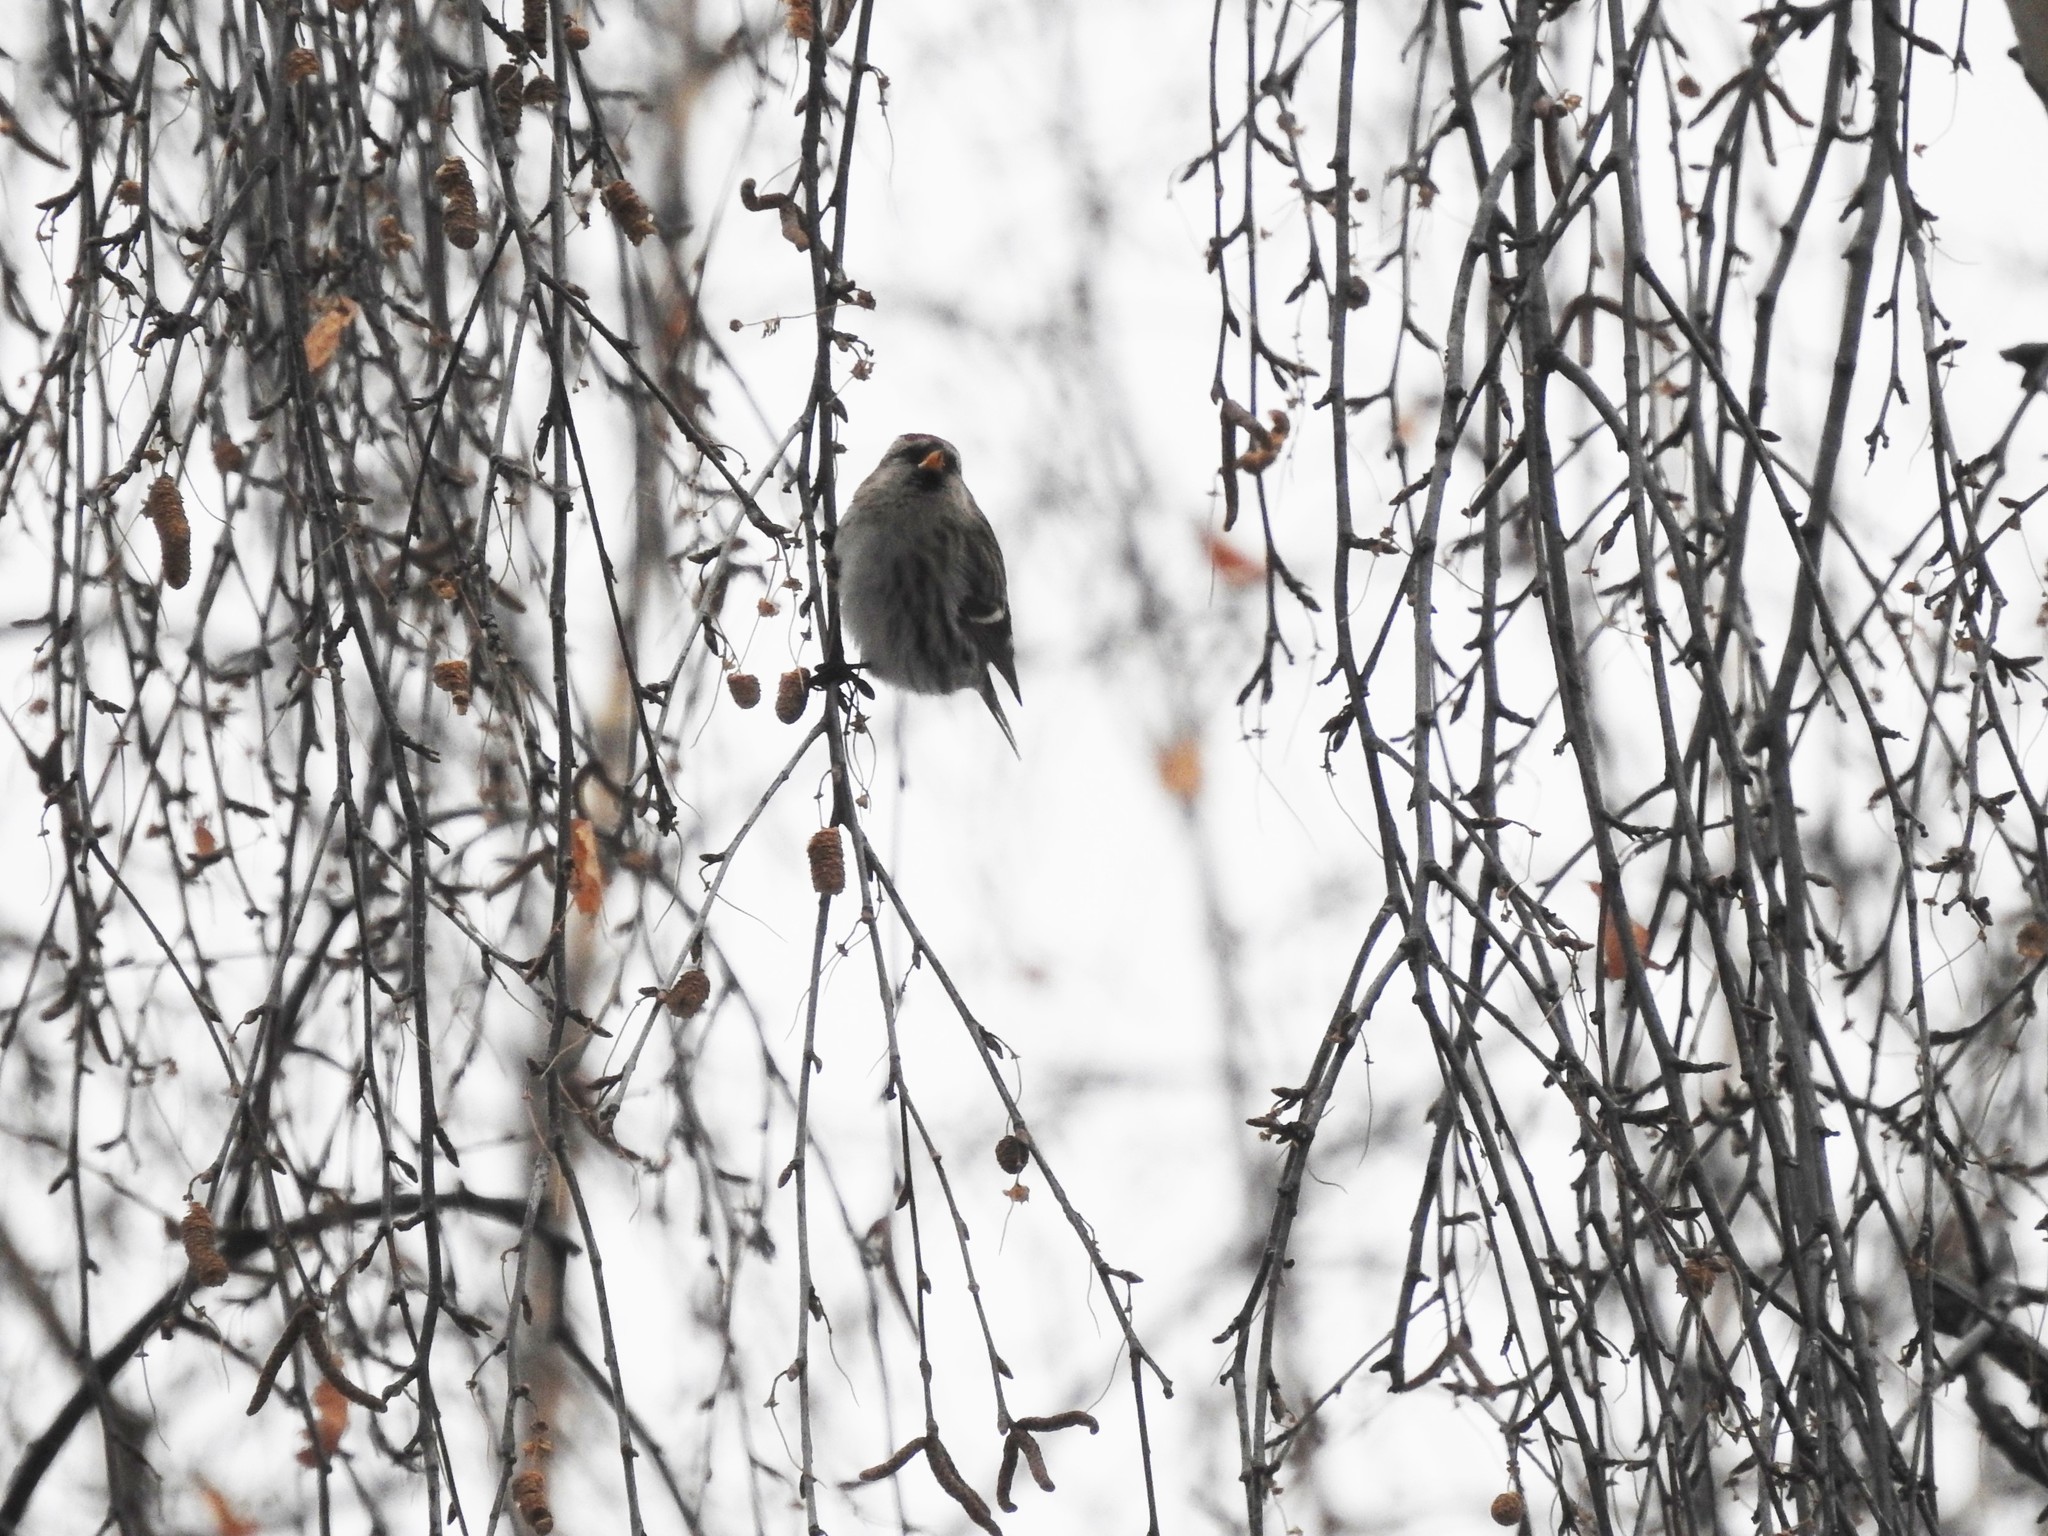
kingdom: Animalia
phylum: Chordata
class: Aves
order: Passeriformes
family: Fringillidae
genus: Acanthis
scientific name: Acanthis flammea
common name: Common redpoll
